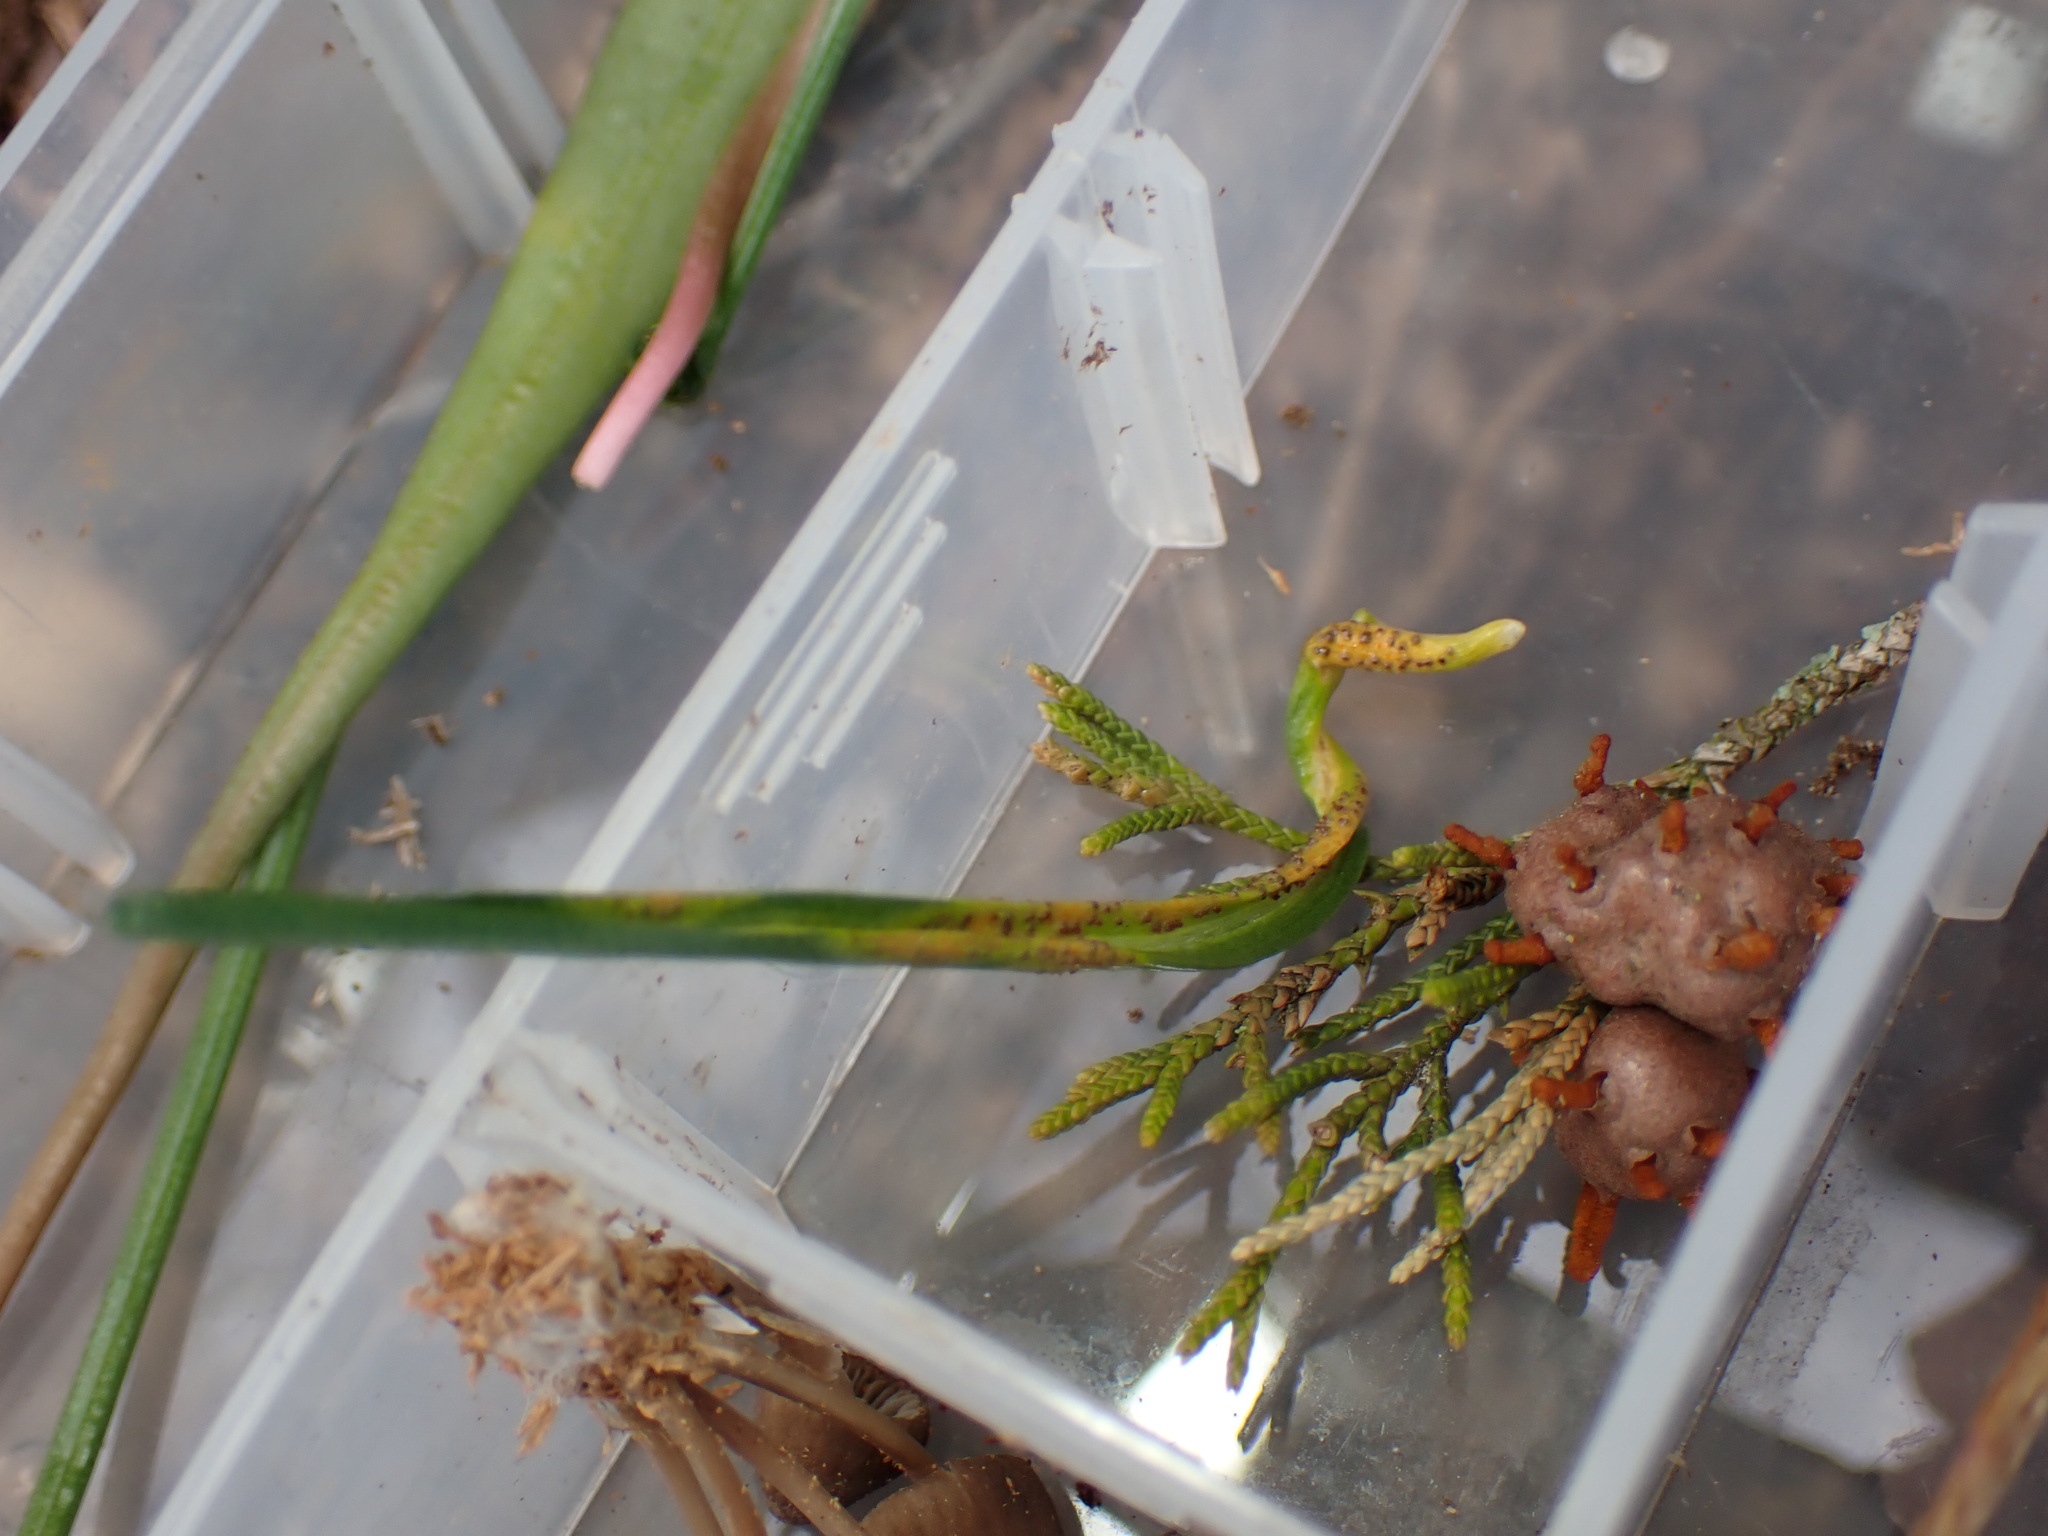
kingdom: Fungi
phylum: Basidiomycota
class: Pucciniomycetes
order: Pucciniales
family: Pucciniaceae
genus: Puccinia
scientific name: Puccinia liliacearum
